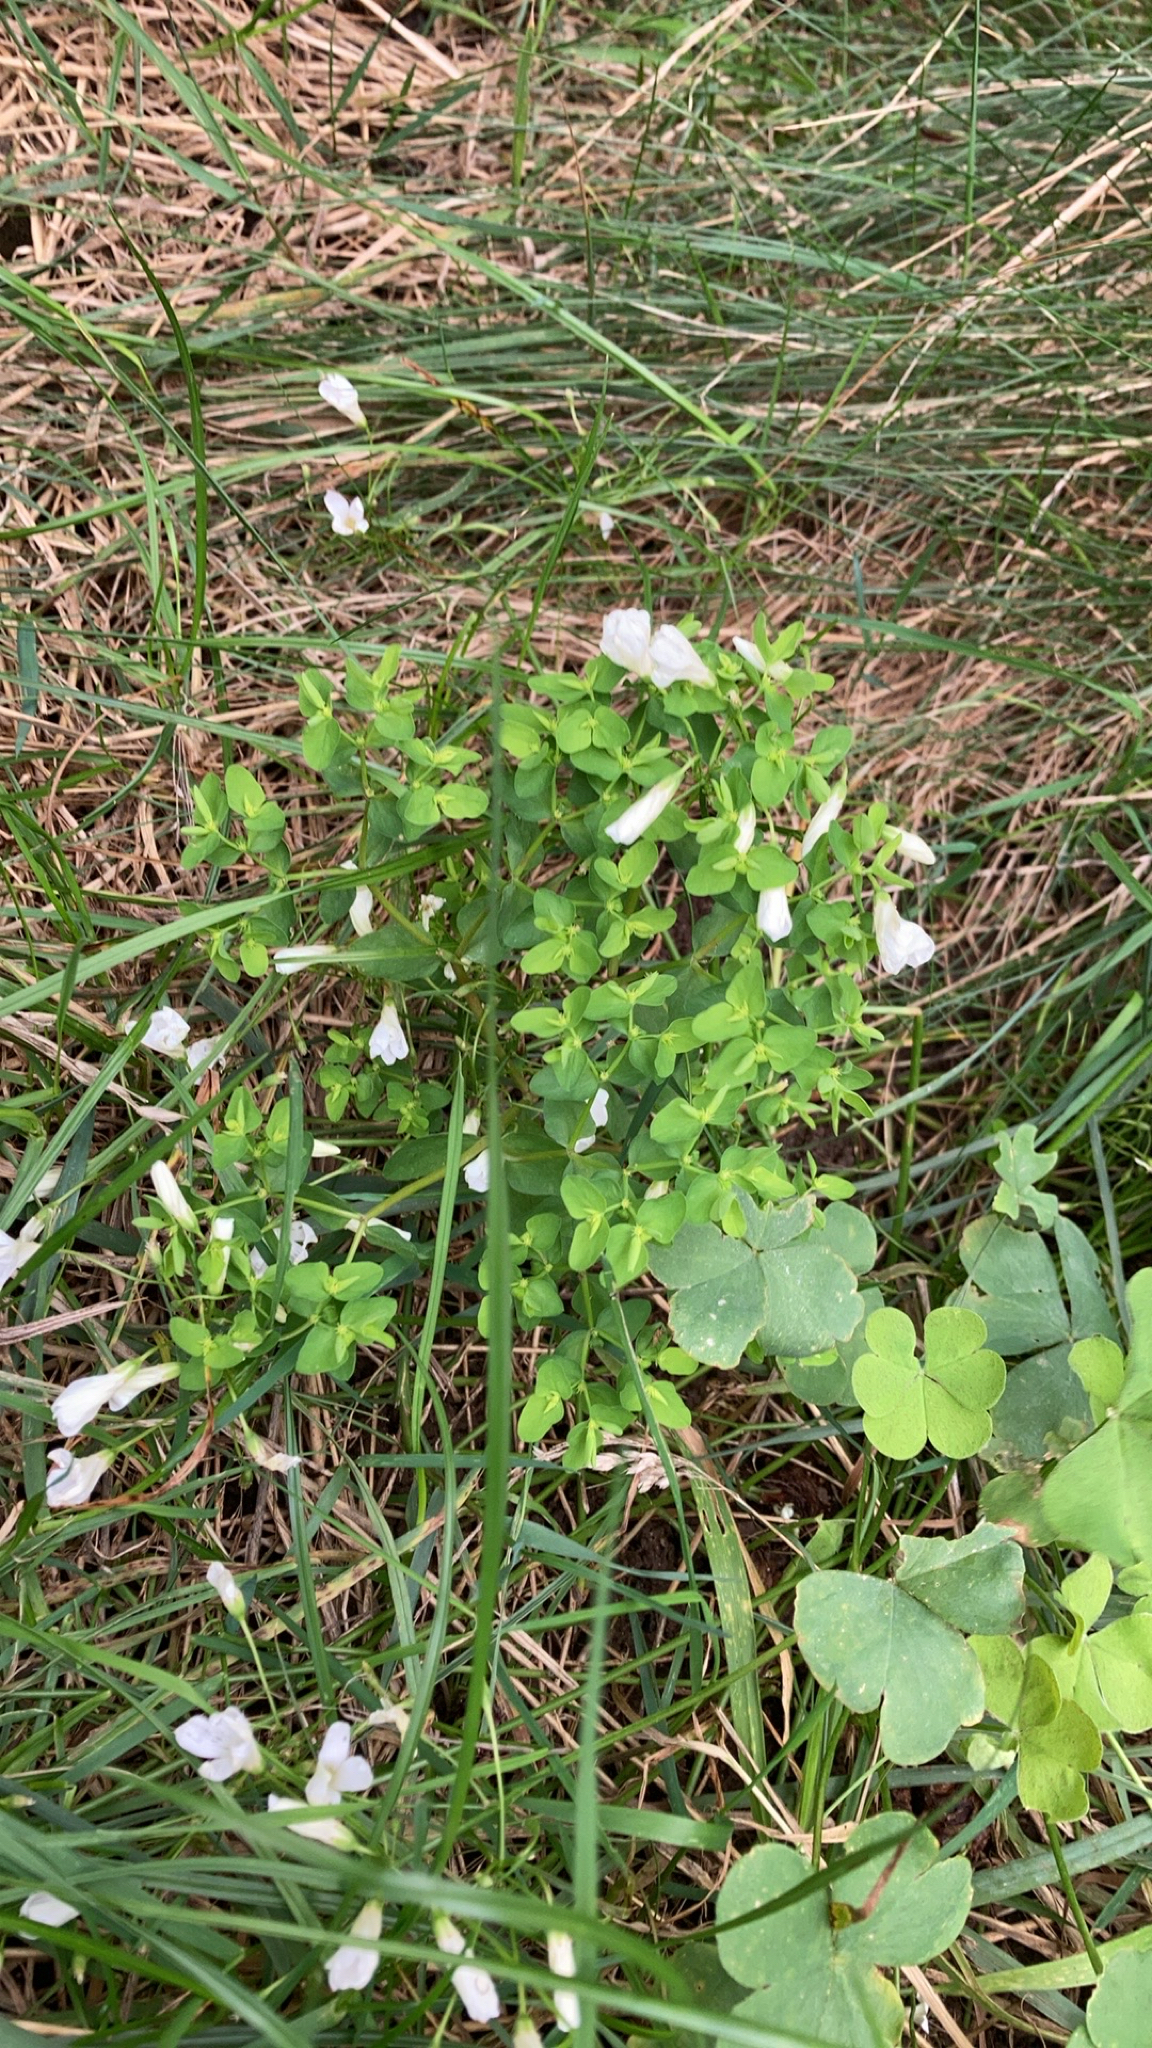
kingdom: Plantae
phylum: Tracheophyta
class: Magnoliopsida
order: Oxalidales
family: Oxalidaceae
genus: Oxalis
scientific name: Oxalis articulata
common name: Pink-sorrel
